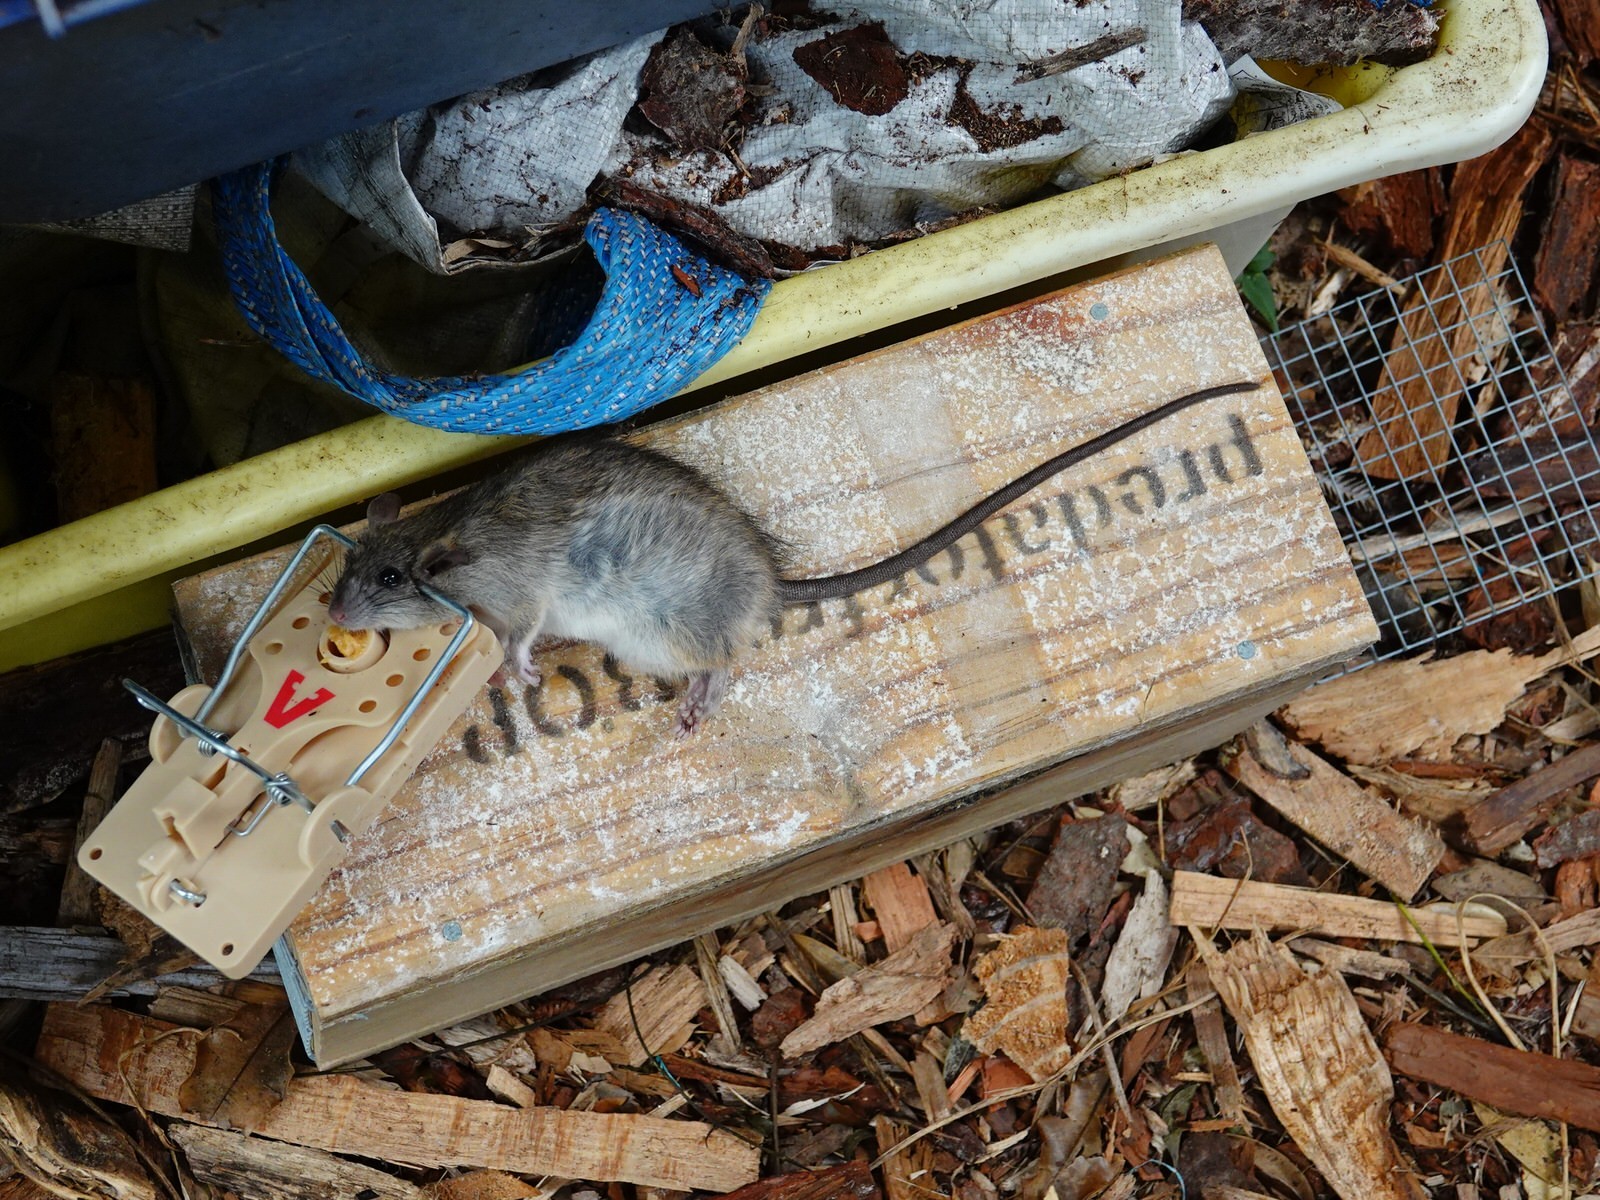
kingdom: Animalia
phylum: Chordata
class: Mammalia
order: Rodentia
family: Muridae
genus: Rattus
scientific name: Rattus rattus
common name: Black rat
